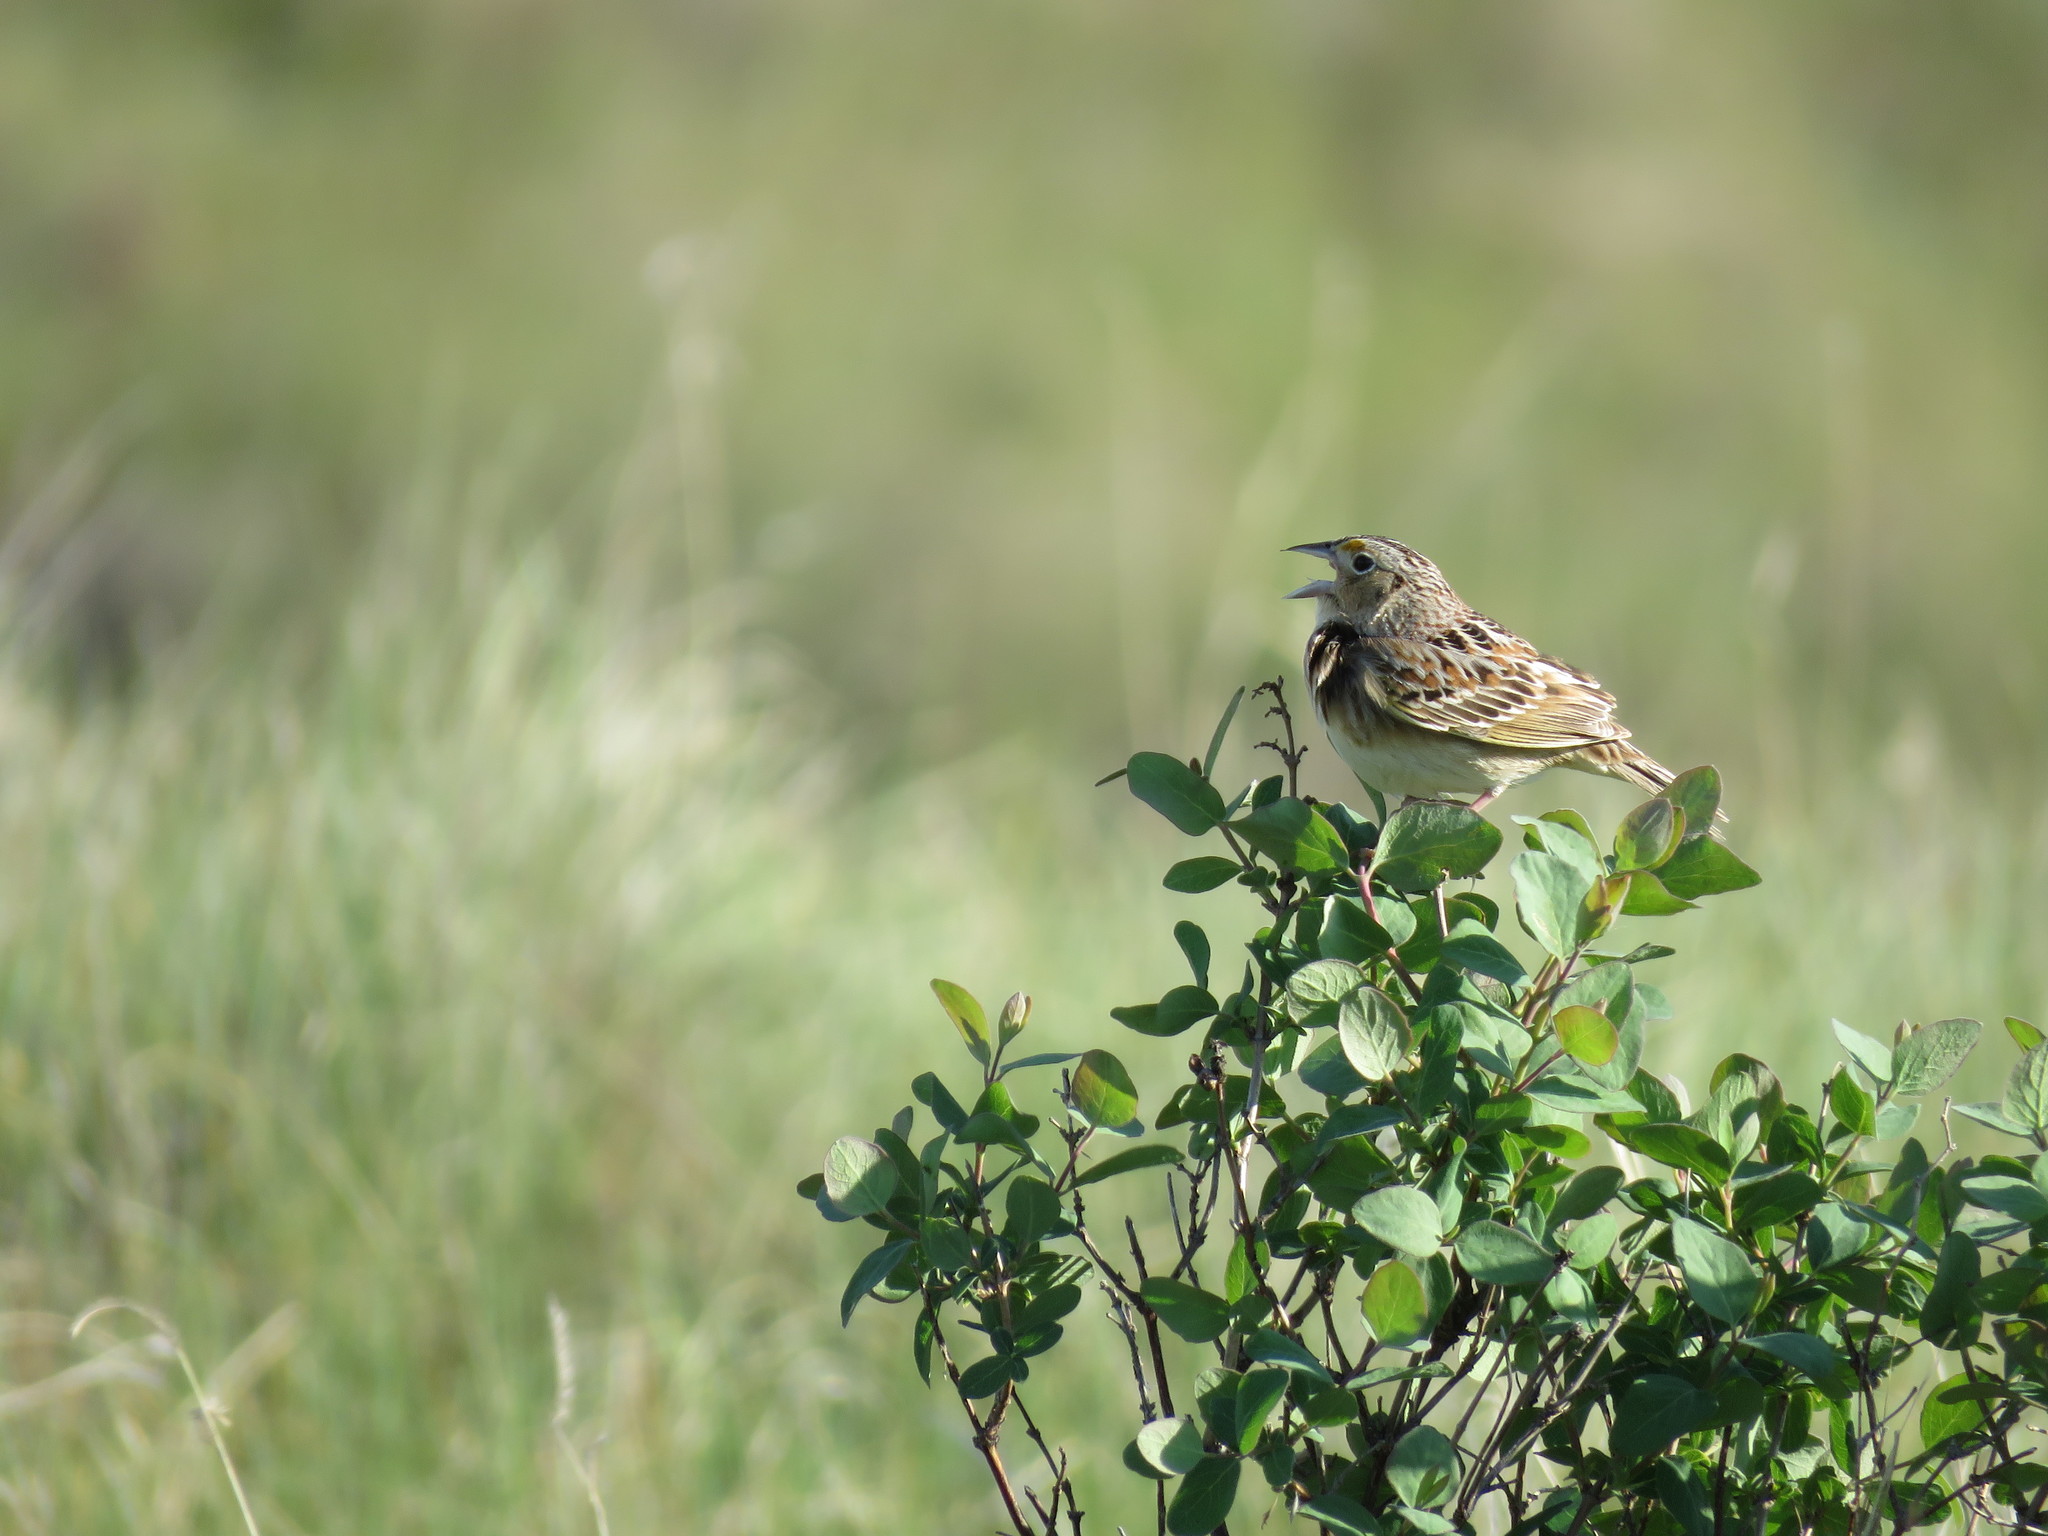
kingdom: Animalia
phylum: Chordata
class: Aves
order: Passeriformes
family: Passerellidae
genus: Ammodramus
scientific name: Ammodramus savannarum
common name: Grasshopper sparrow
